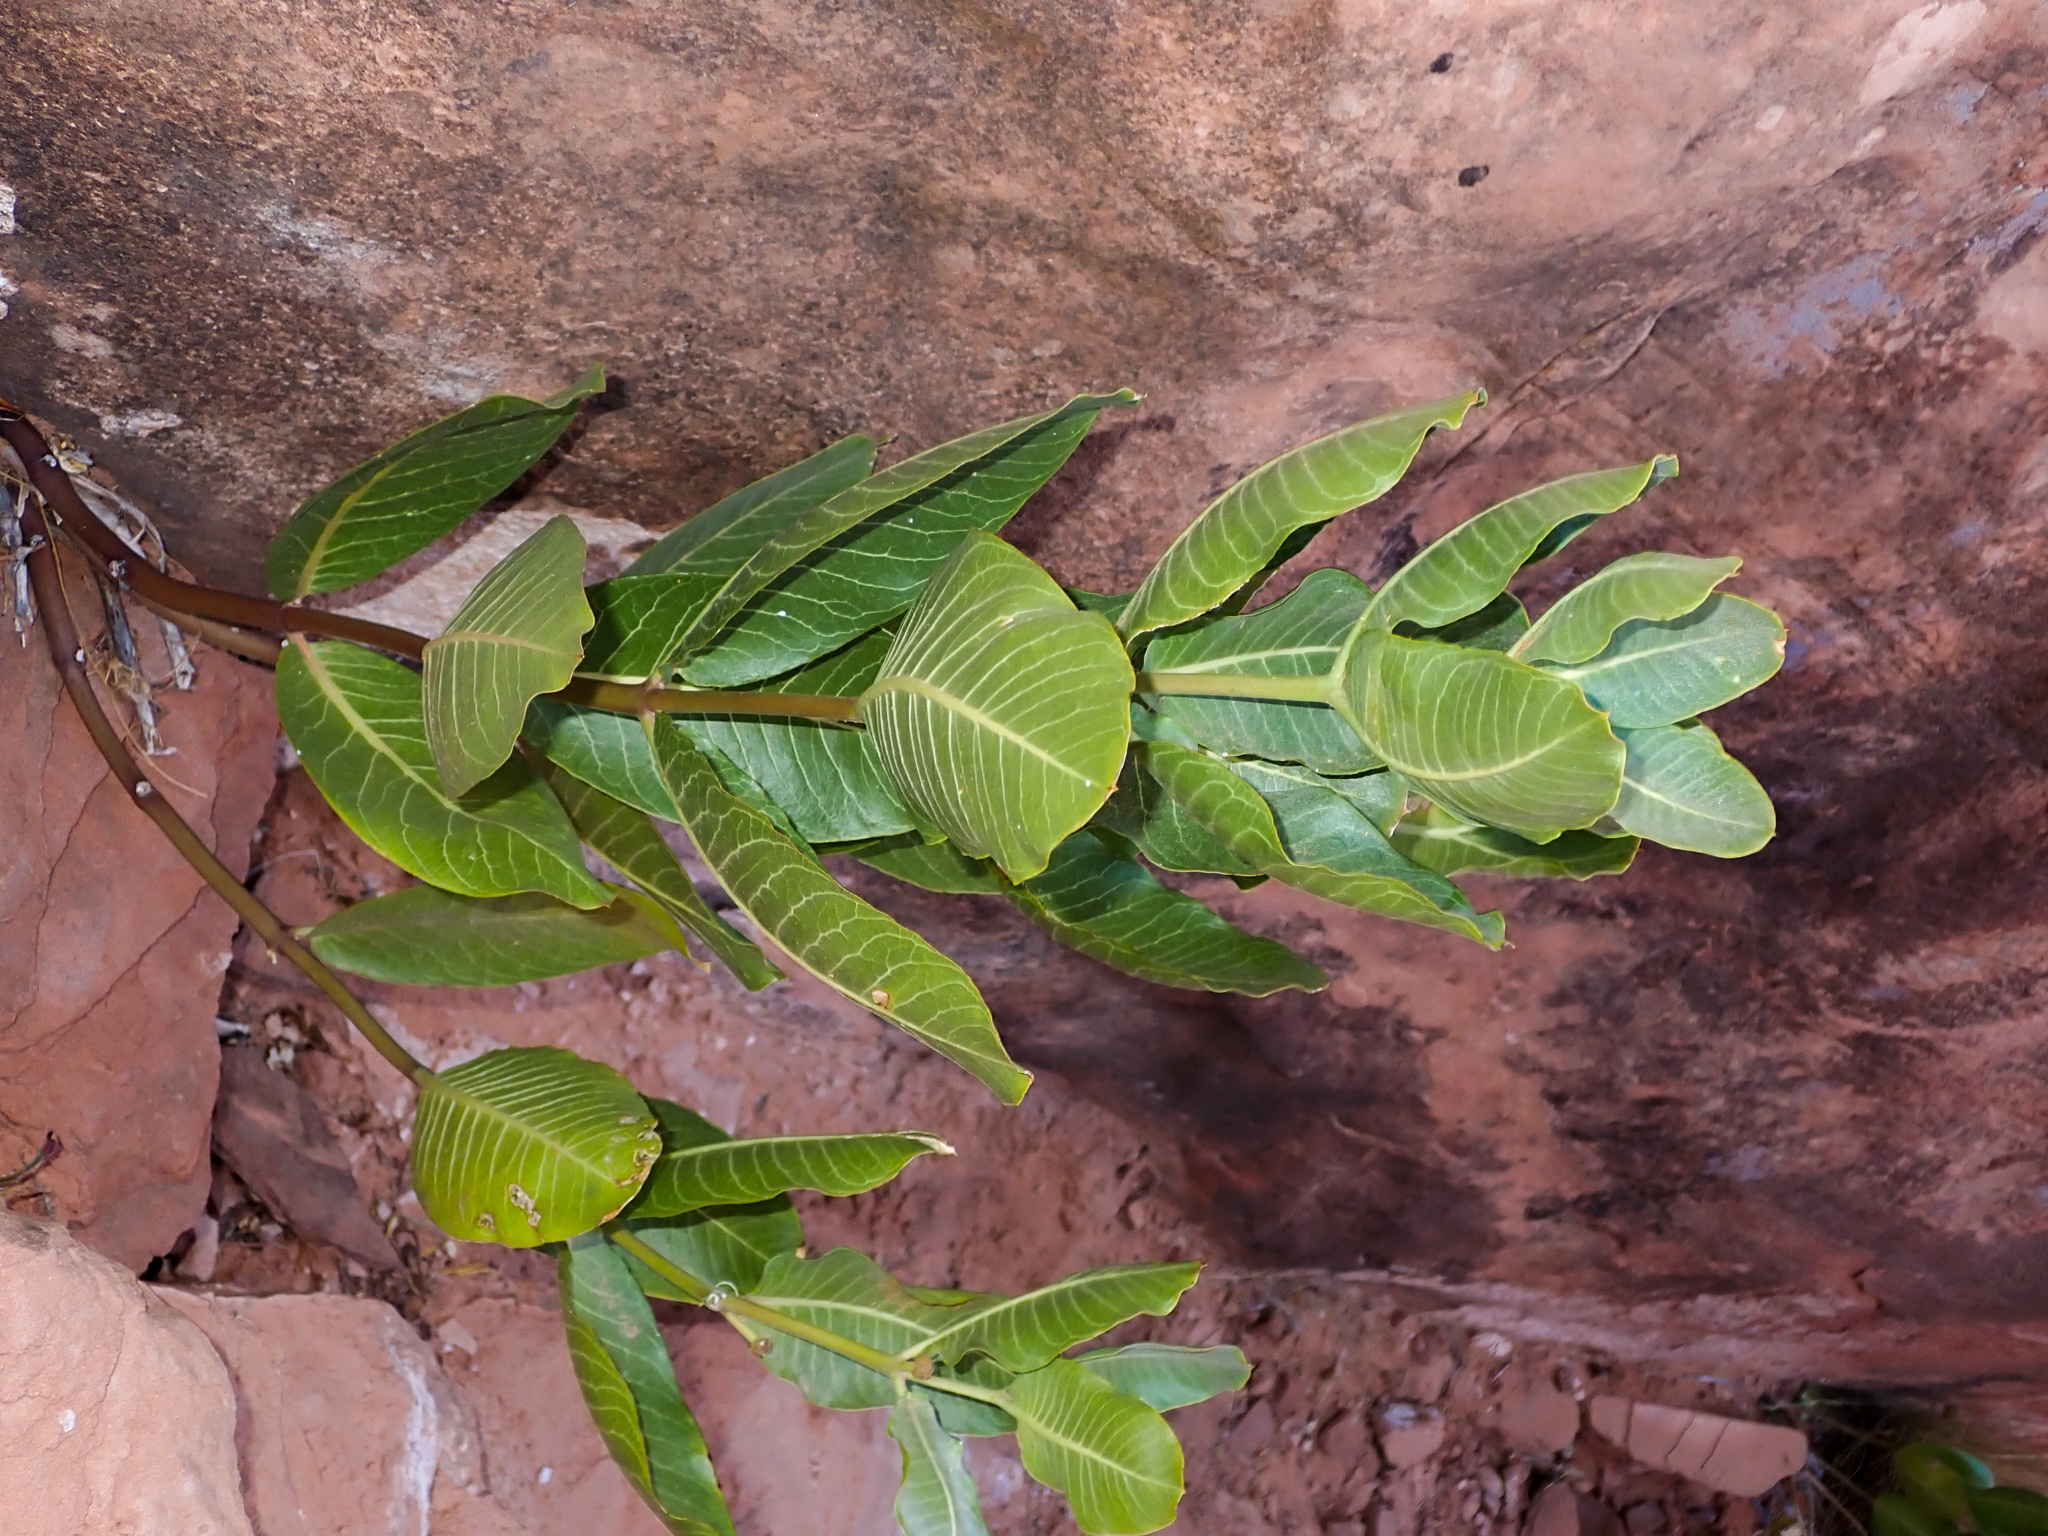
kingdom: Plantae
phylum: Tracheophyta
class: Magnoliopsida
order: Gentianales
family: Apocynaceae
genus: Asclepias
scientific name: Asclepias latifolia
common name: Broadleaf milkweed
